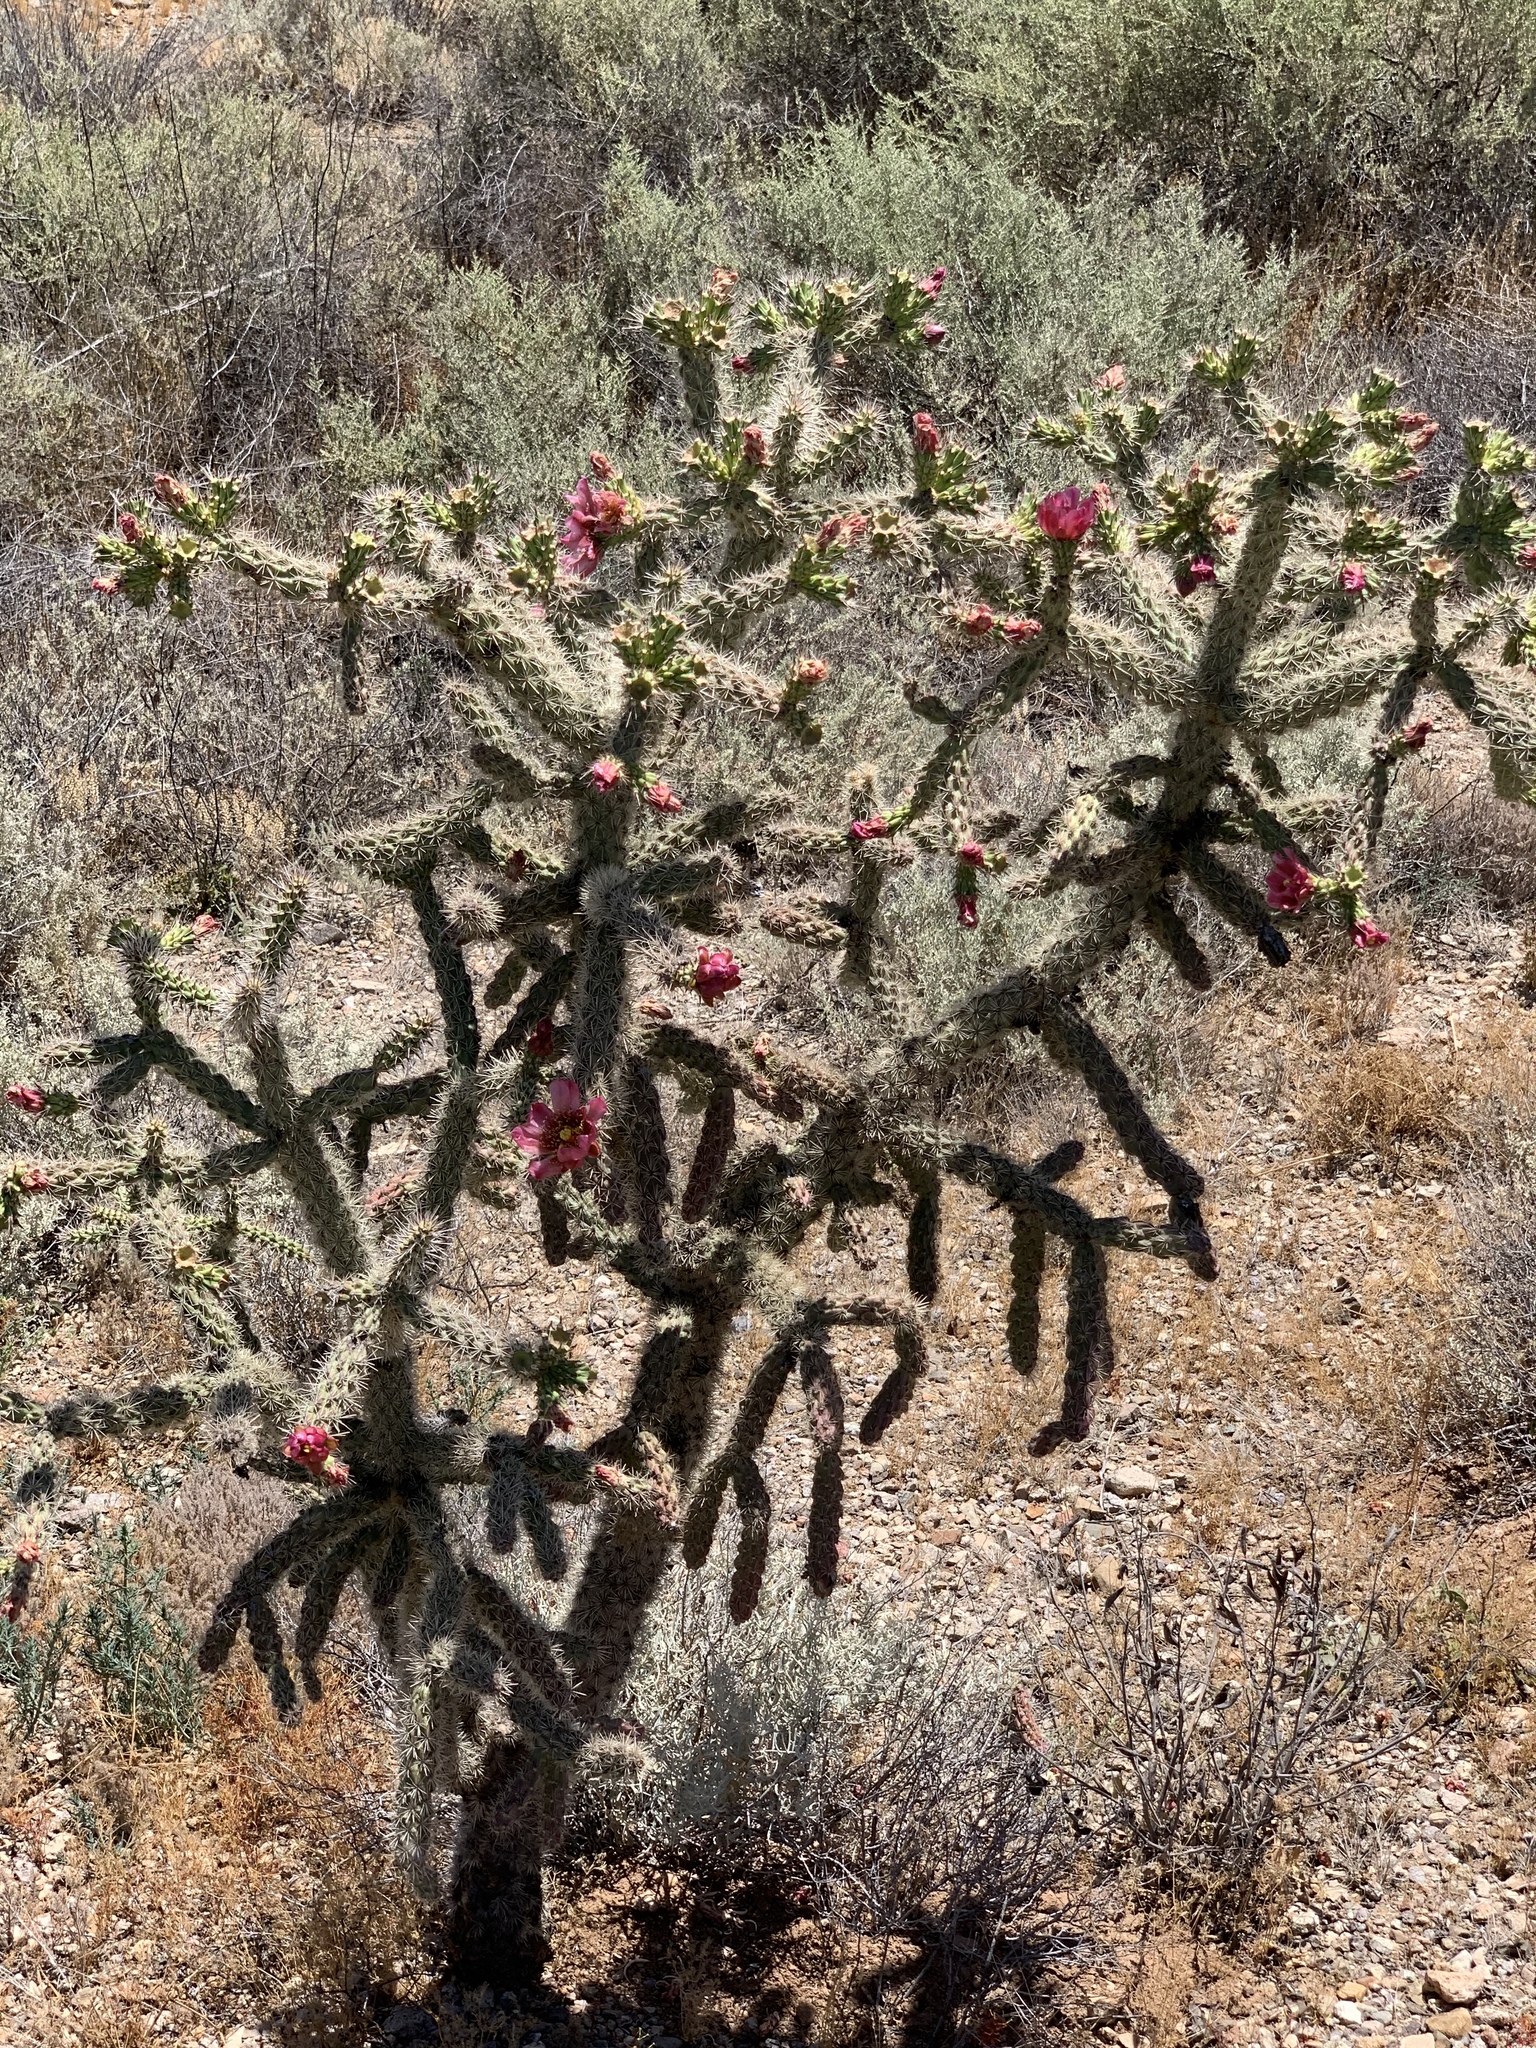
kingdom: Plantae
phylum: Tracheophyta
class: Magnoliopsida
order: Caryophyllales
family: Cactaceae
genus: Cylindropuntia
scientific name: Cylindropuntia imbricata
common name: Candelabrum cactus
